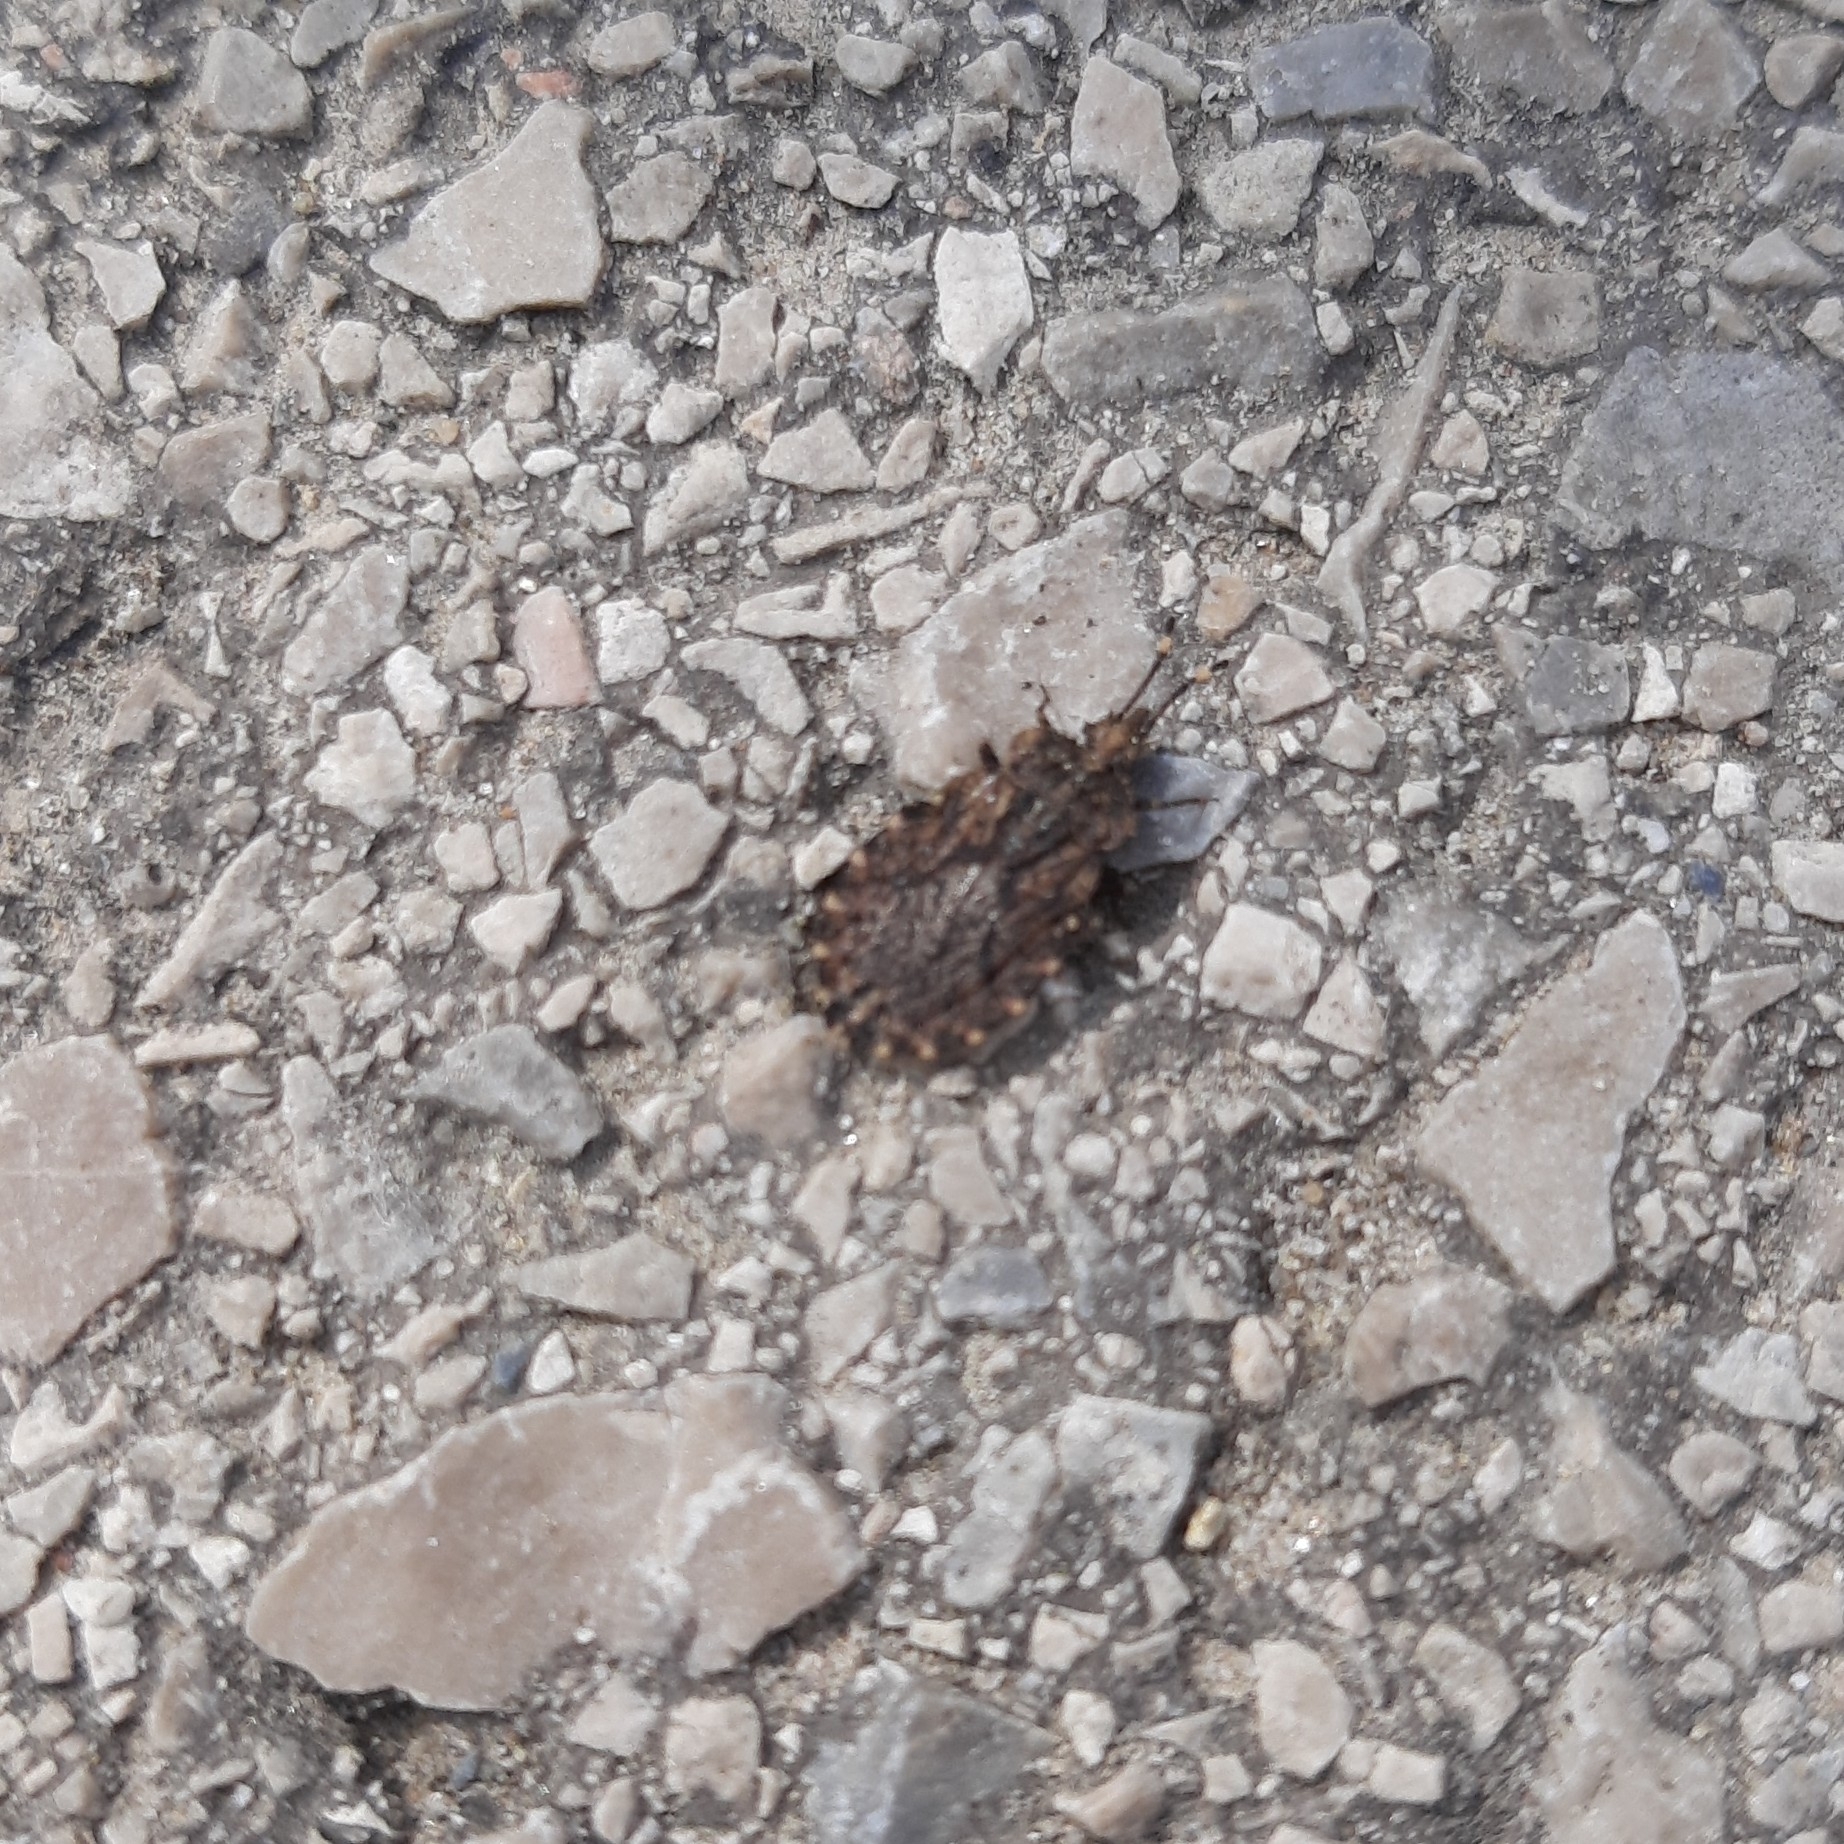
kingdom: Animalia
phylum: Arthropoda
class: Insecta
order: Hemiptera
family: Aradidae
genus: Aradus
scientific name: Aradus
